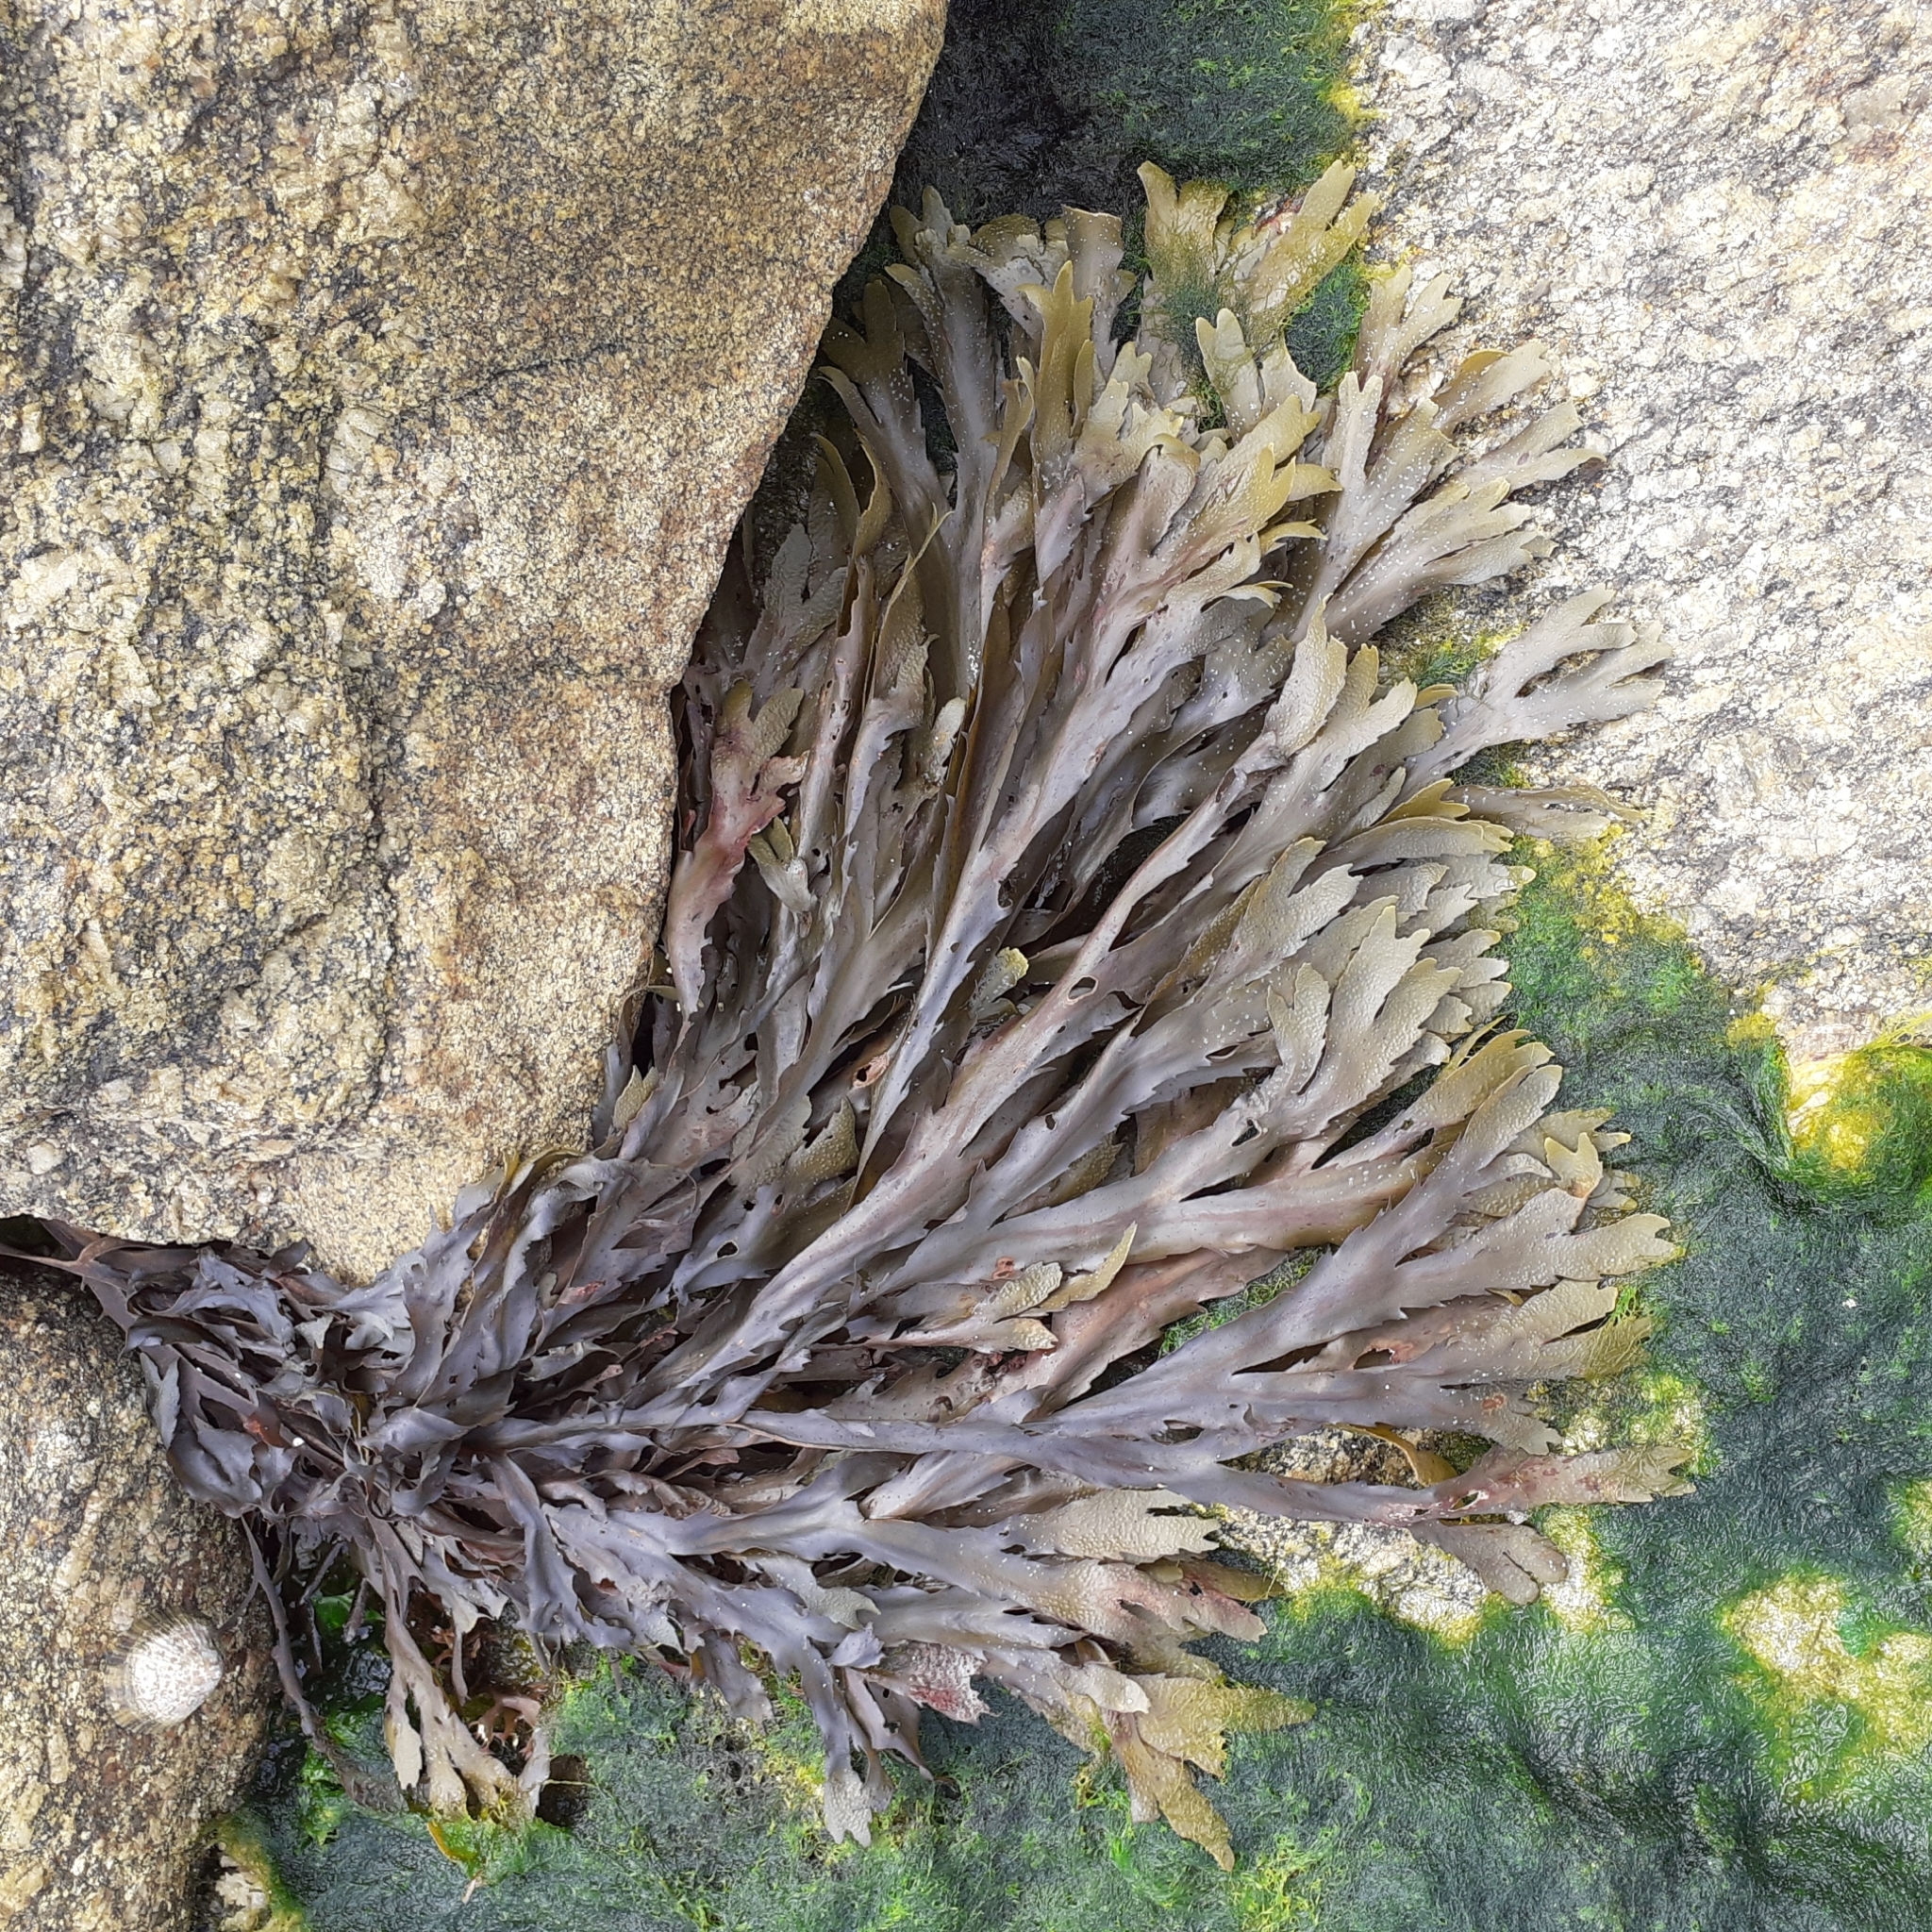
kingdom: Chromista
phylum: Ochrophyta
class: Phaeophyceae
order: Fucales
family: Fucaceae
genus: Fucus
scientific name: Fucus serratus
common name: Toothed wrack
